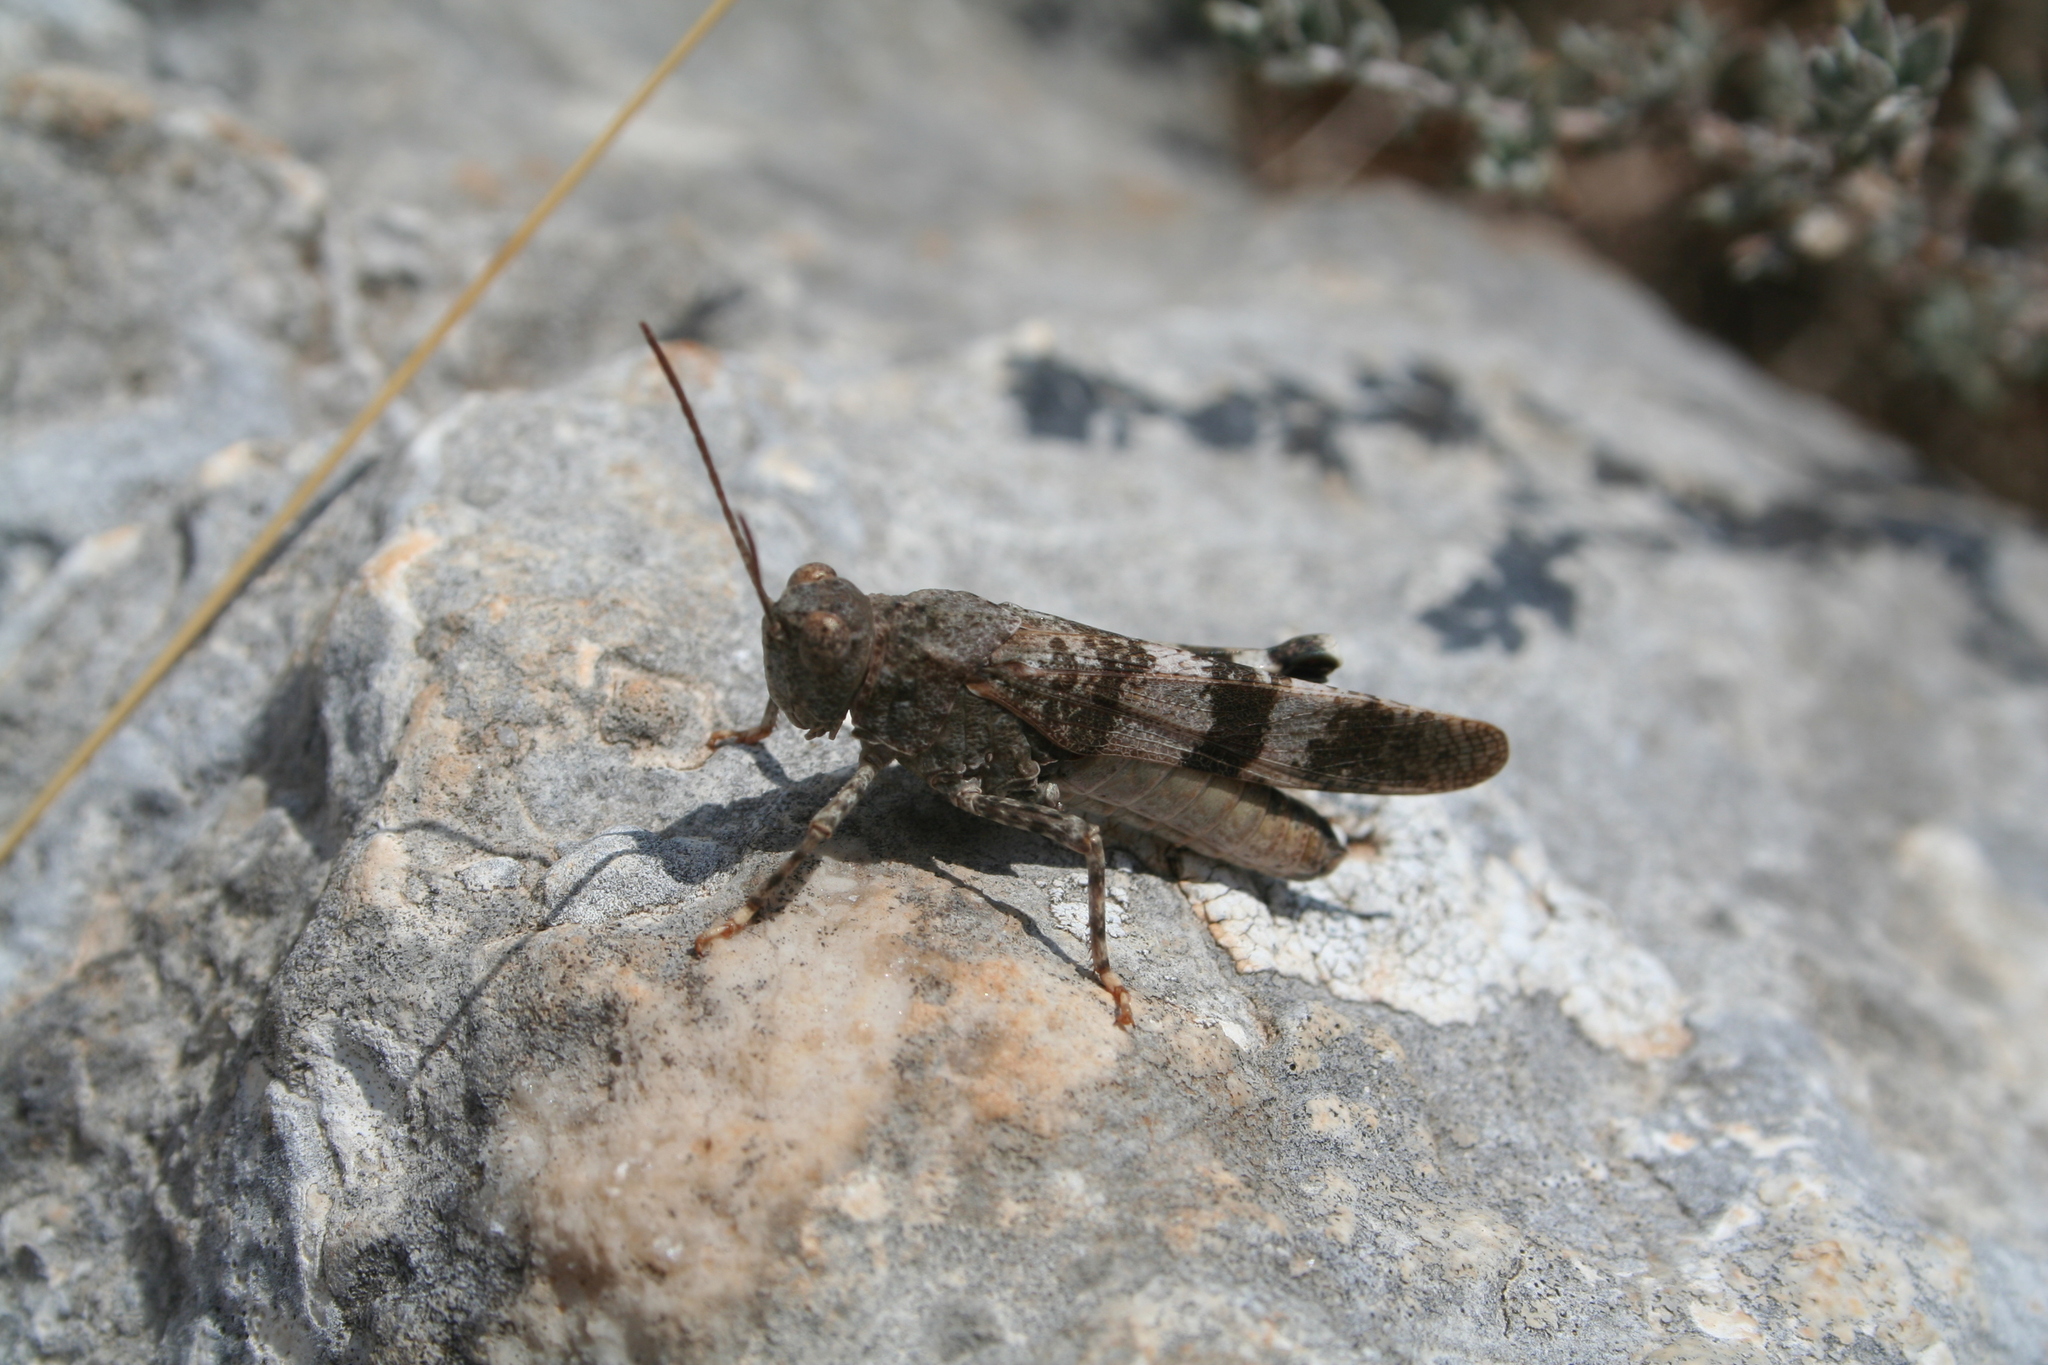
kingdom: Animalia
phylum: Arthropoda
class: Insecta
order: Orthoptera
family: Acrididae
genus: Oedipoda
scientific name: Oedipoda germanica
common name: Red band-winged grasshopper
